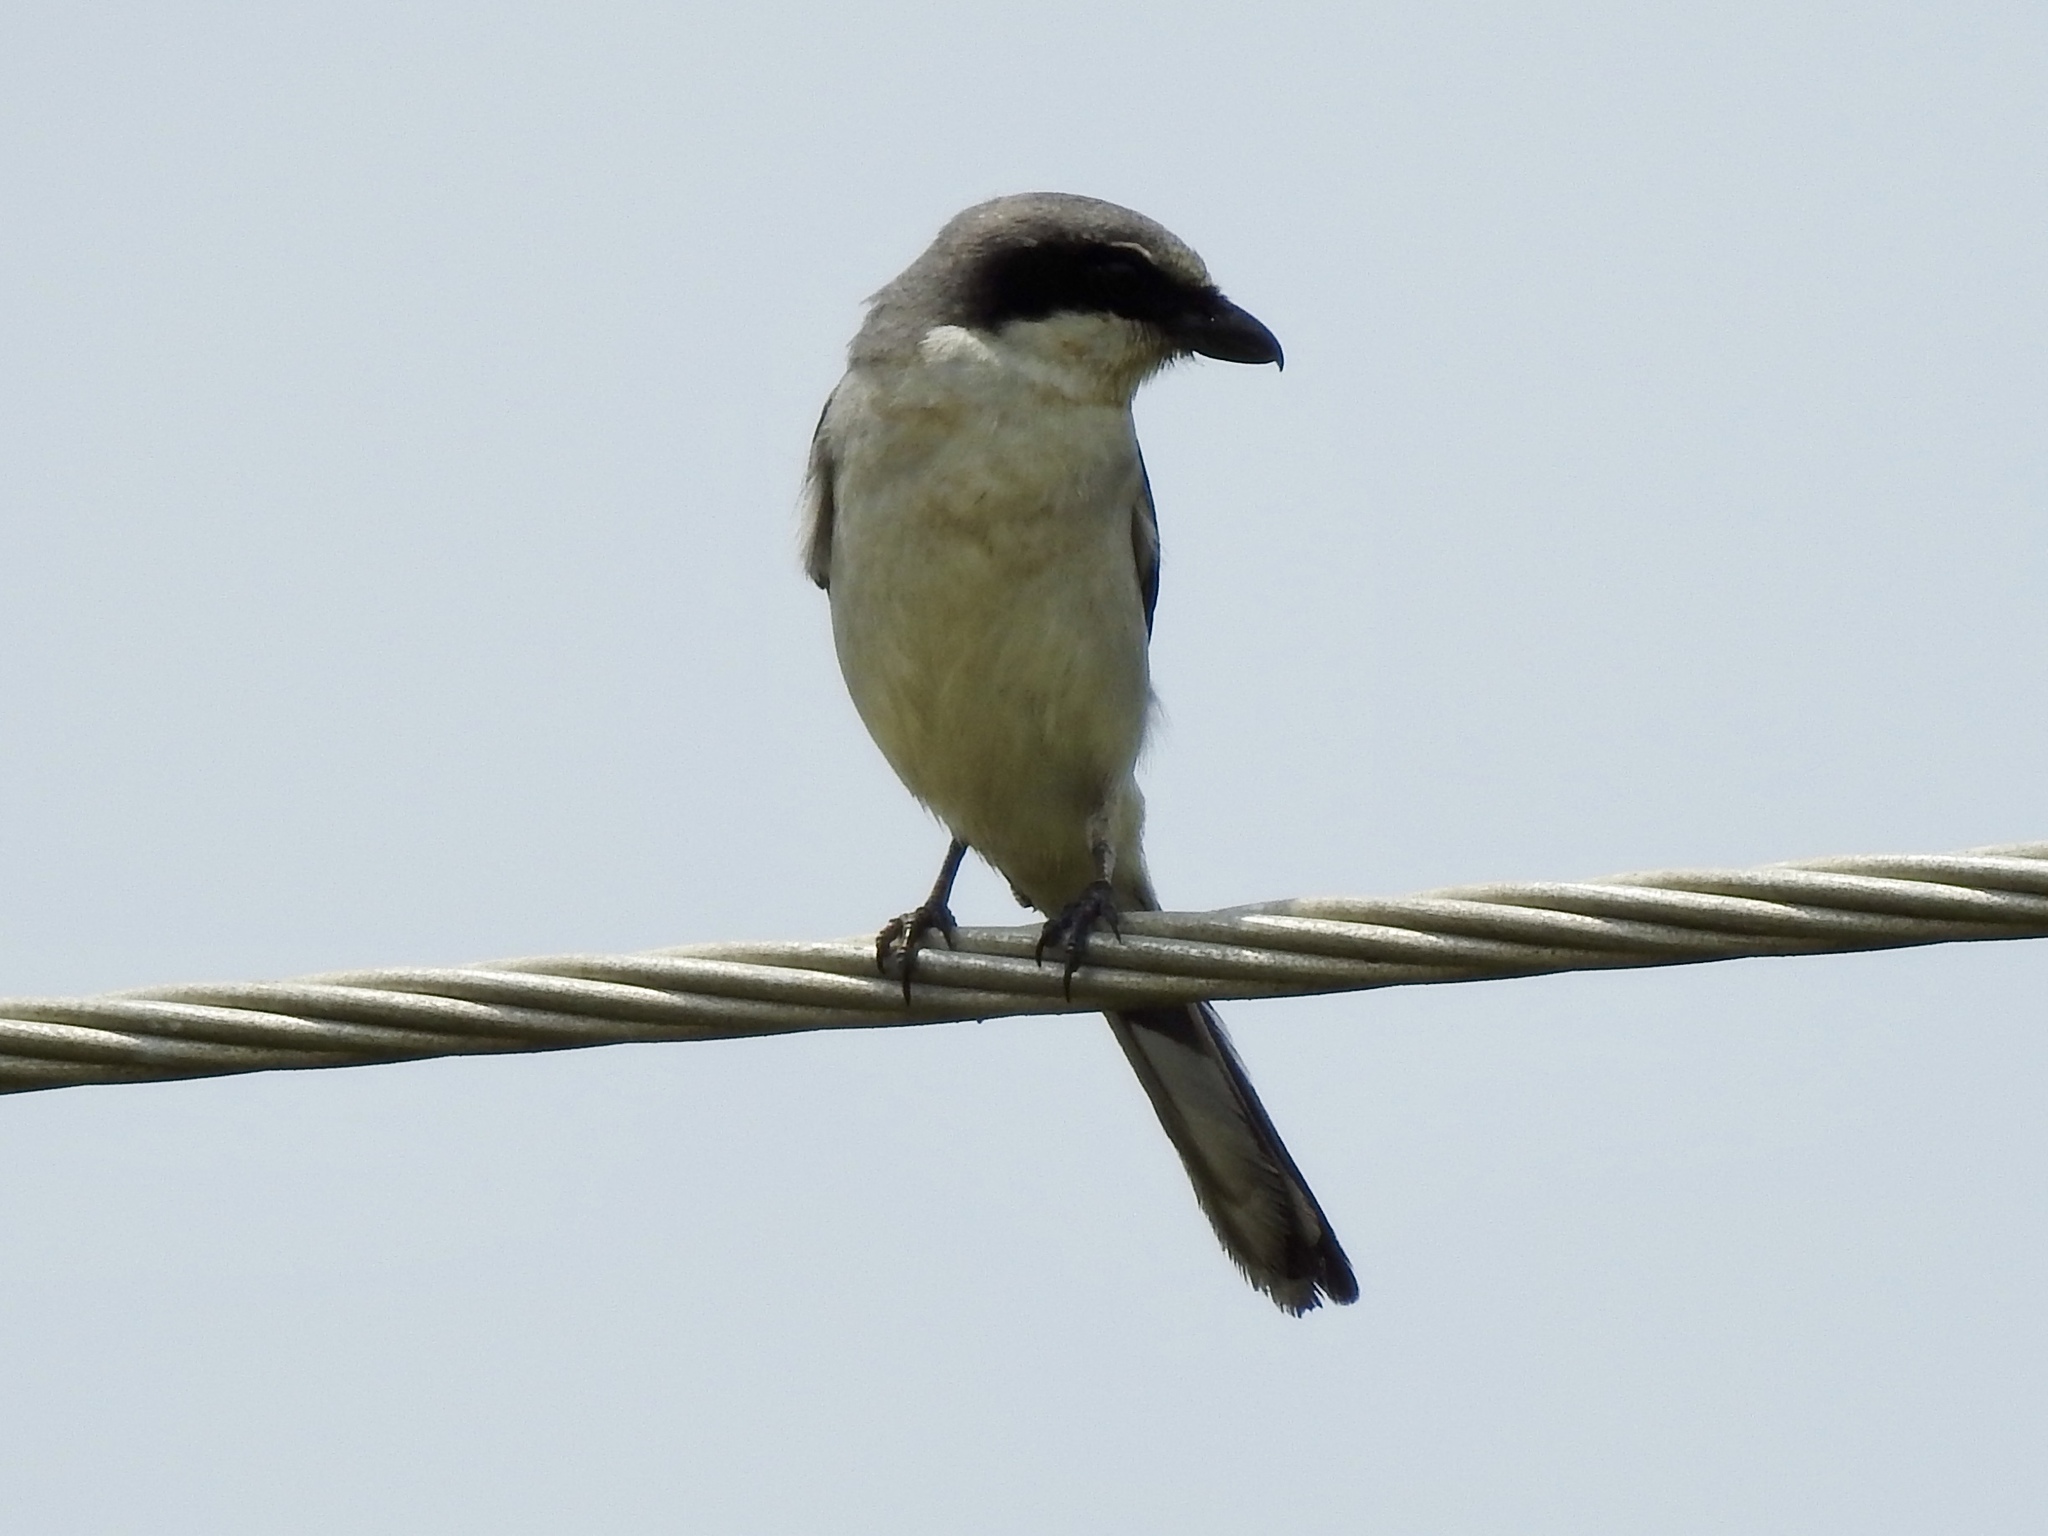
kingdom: Animalia
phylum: Chordata
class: Aves
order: Passeriformes
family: Laniidae
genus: Lanius
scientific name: Lanius ludovicianus
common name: Loggerhead shrike
